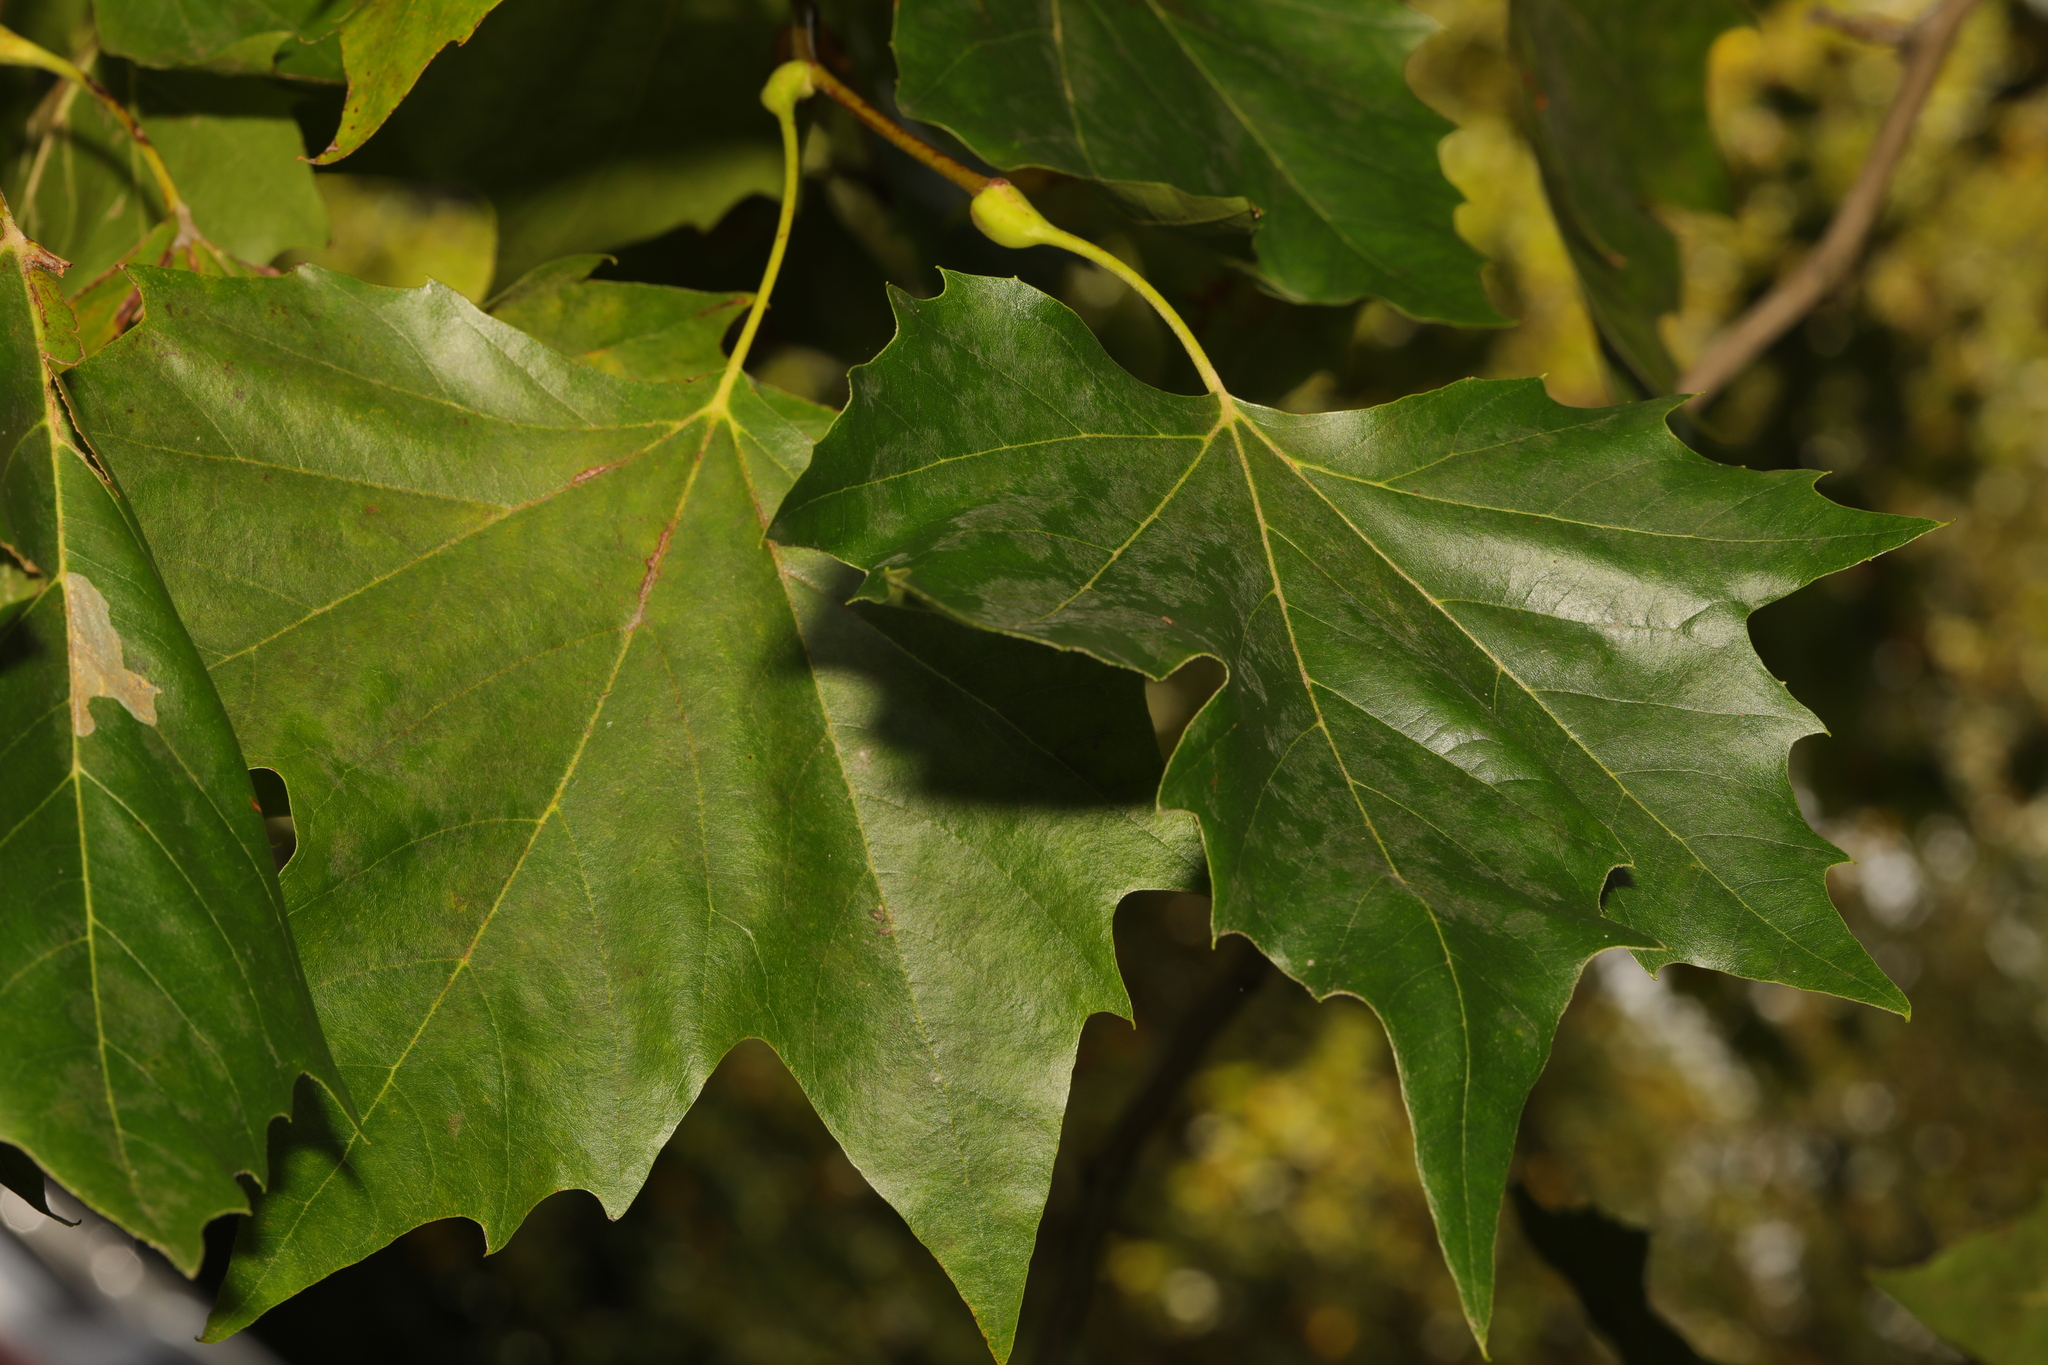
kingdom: Plantae
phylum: Tracheophyta
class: Magnoliopsida
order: Proteales
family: Platanaceae
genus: Platanus
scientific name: Platanus hispanica
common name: London plane
